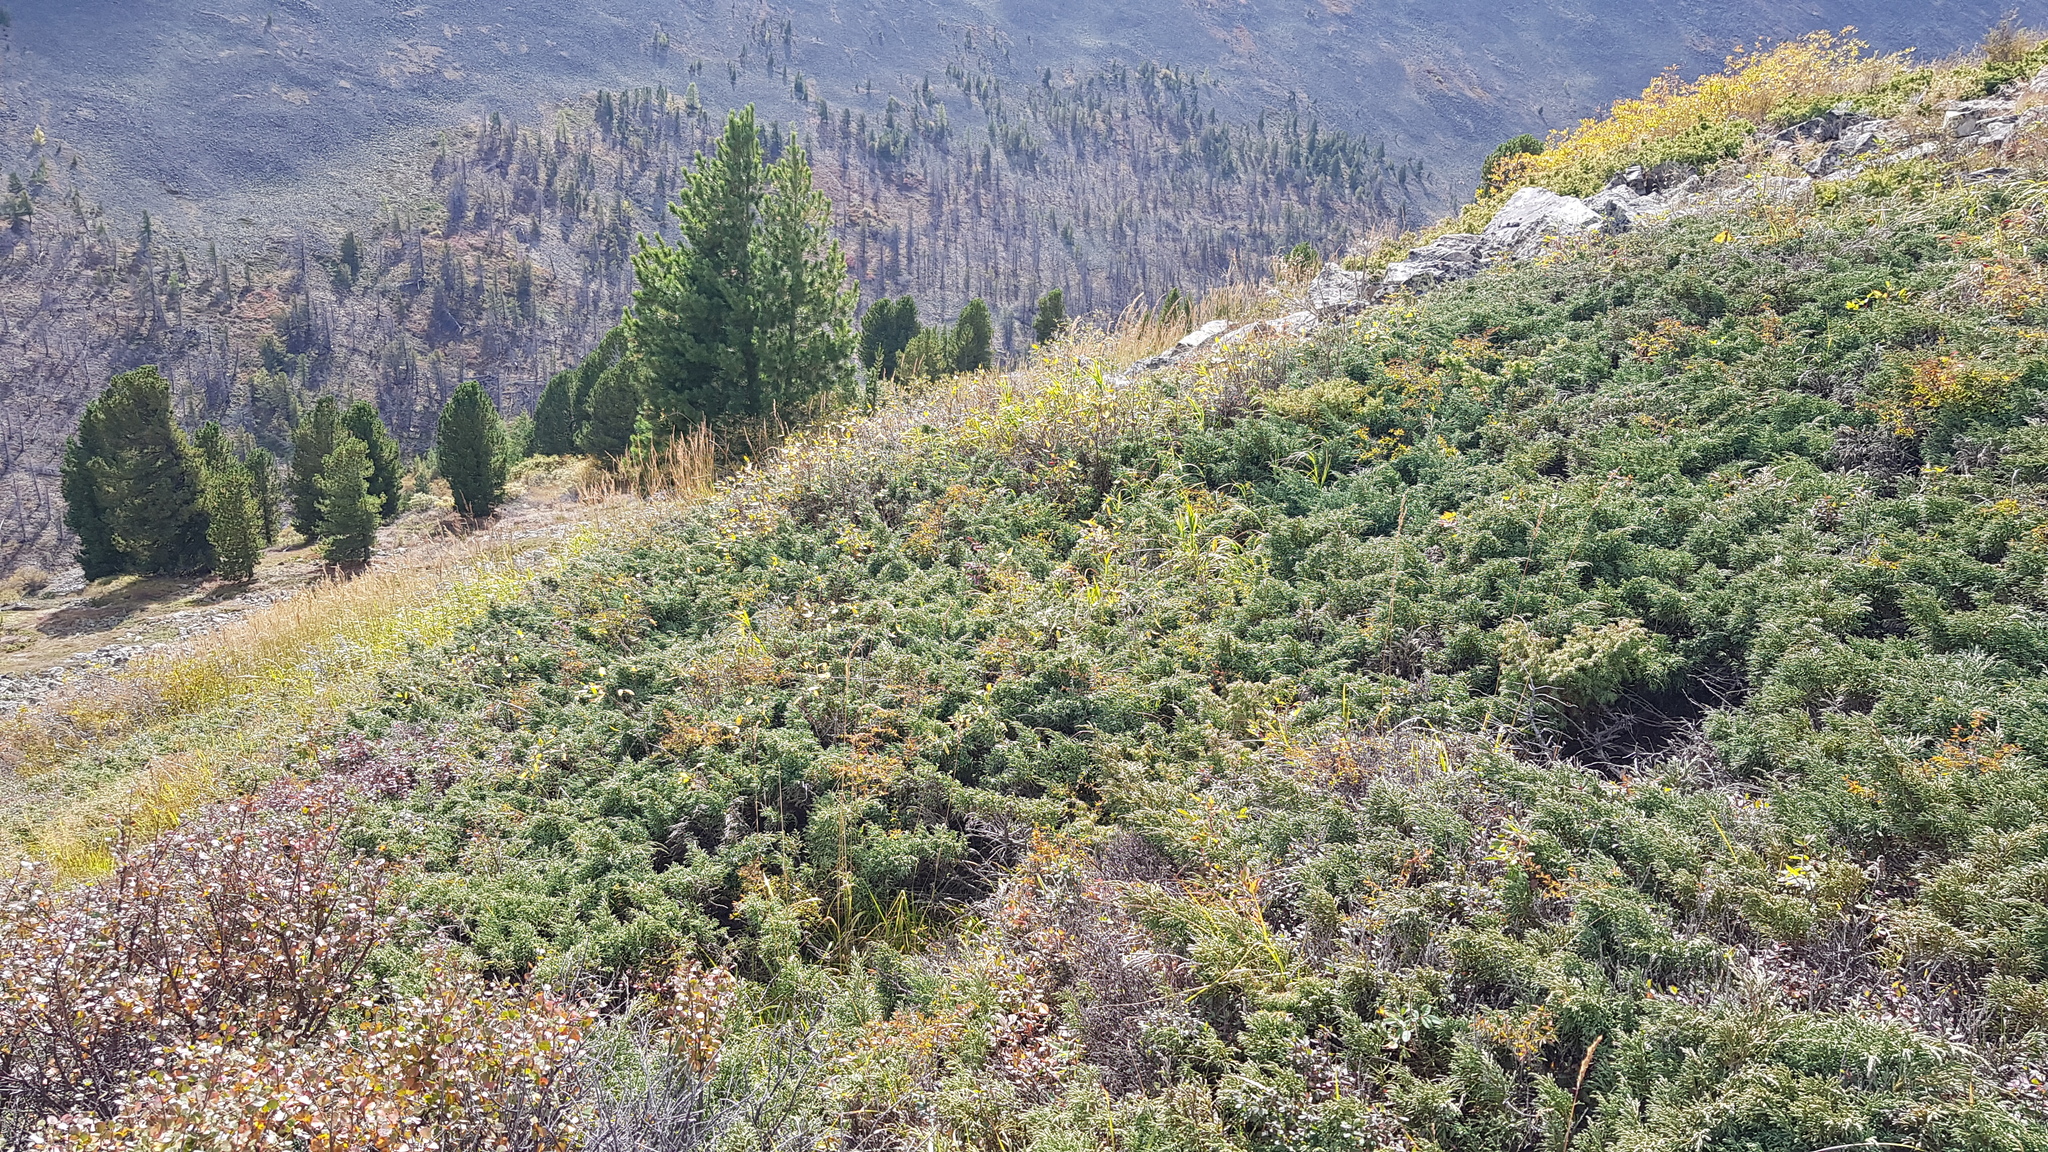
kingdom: Plantae
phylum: Tracheophyta
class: Pinopsida
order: Pinales
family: Cupressaceae
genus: Juniperus
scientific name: Juniperus communis
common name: Common juniper
